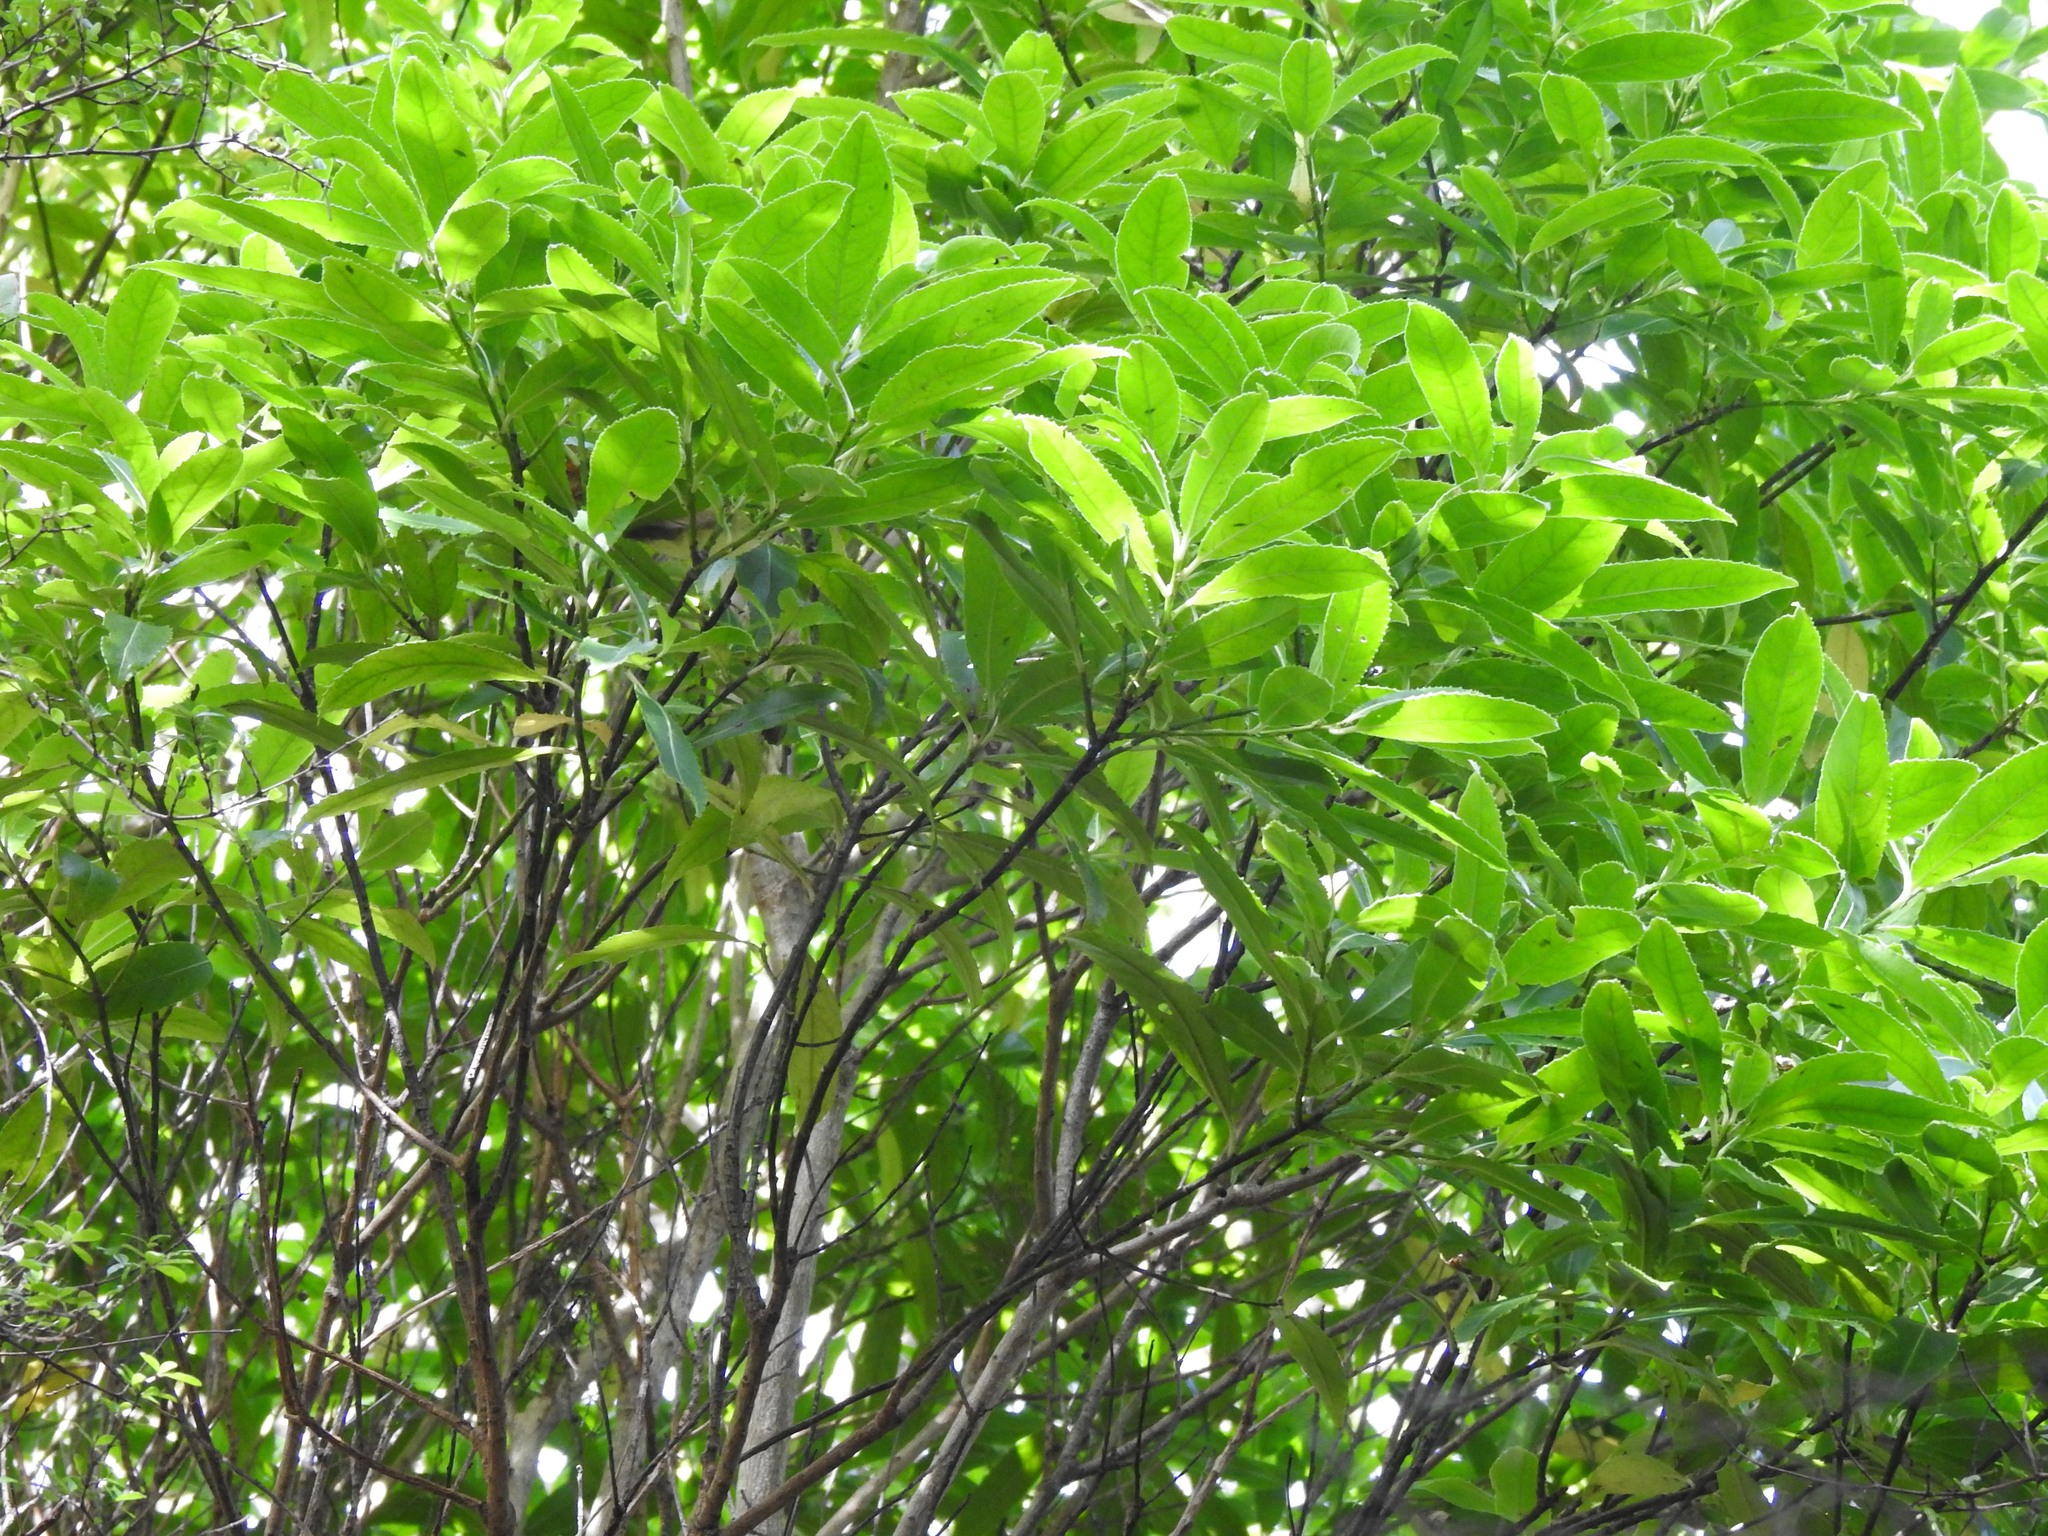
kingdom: Plantae
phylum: Tracheophyta
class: Magnoliopsida
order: Malpighiales
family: Violaceae
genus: Melicytus
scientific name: Melicytus lanceolatus
